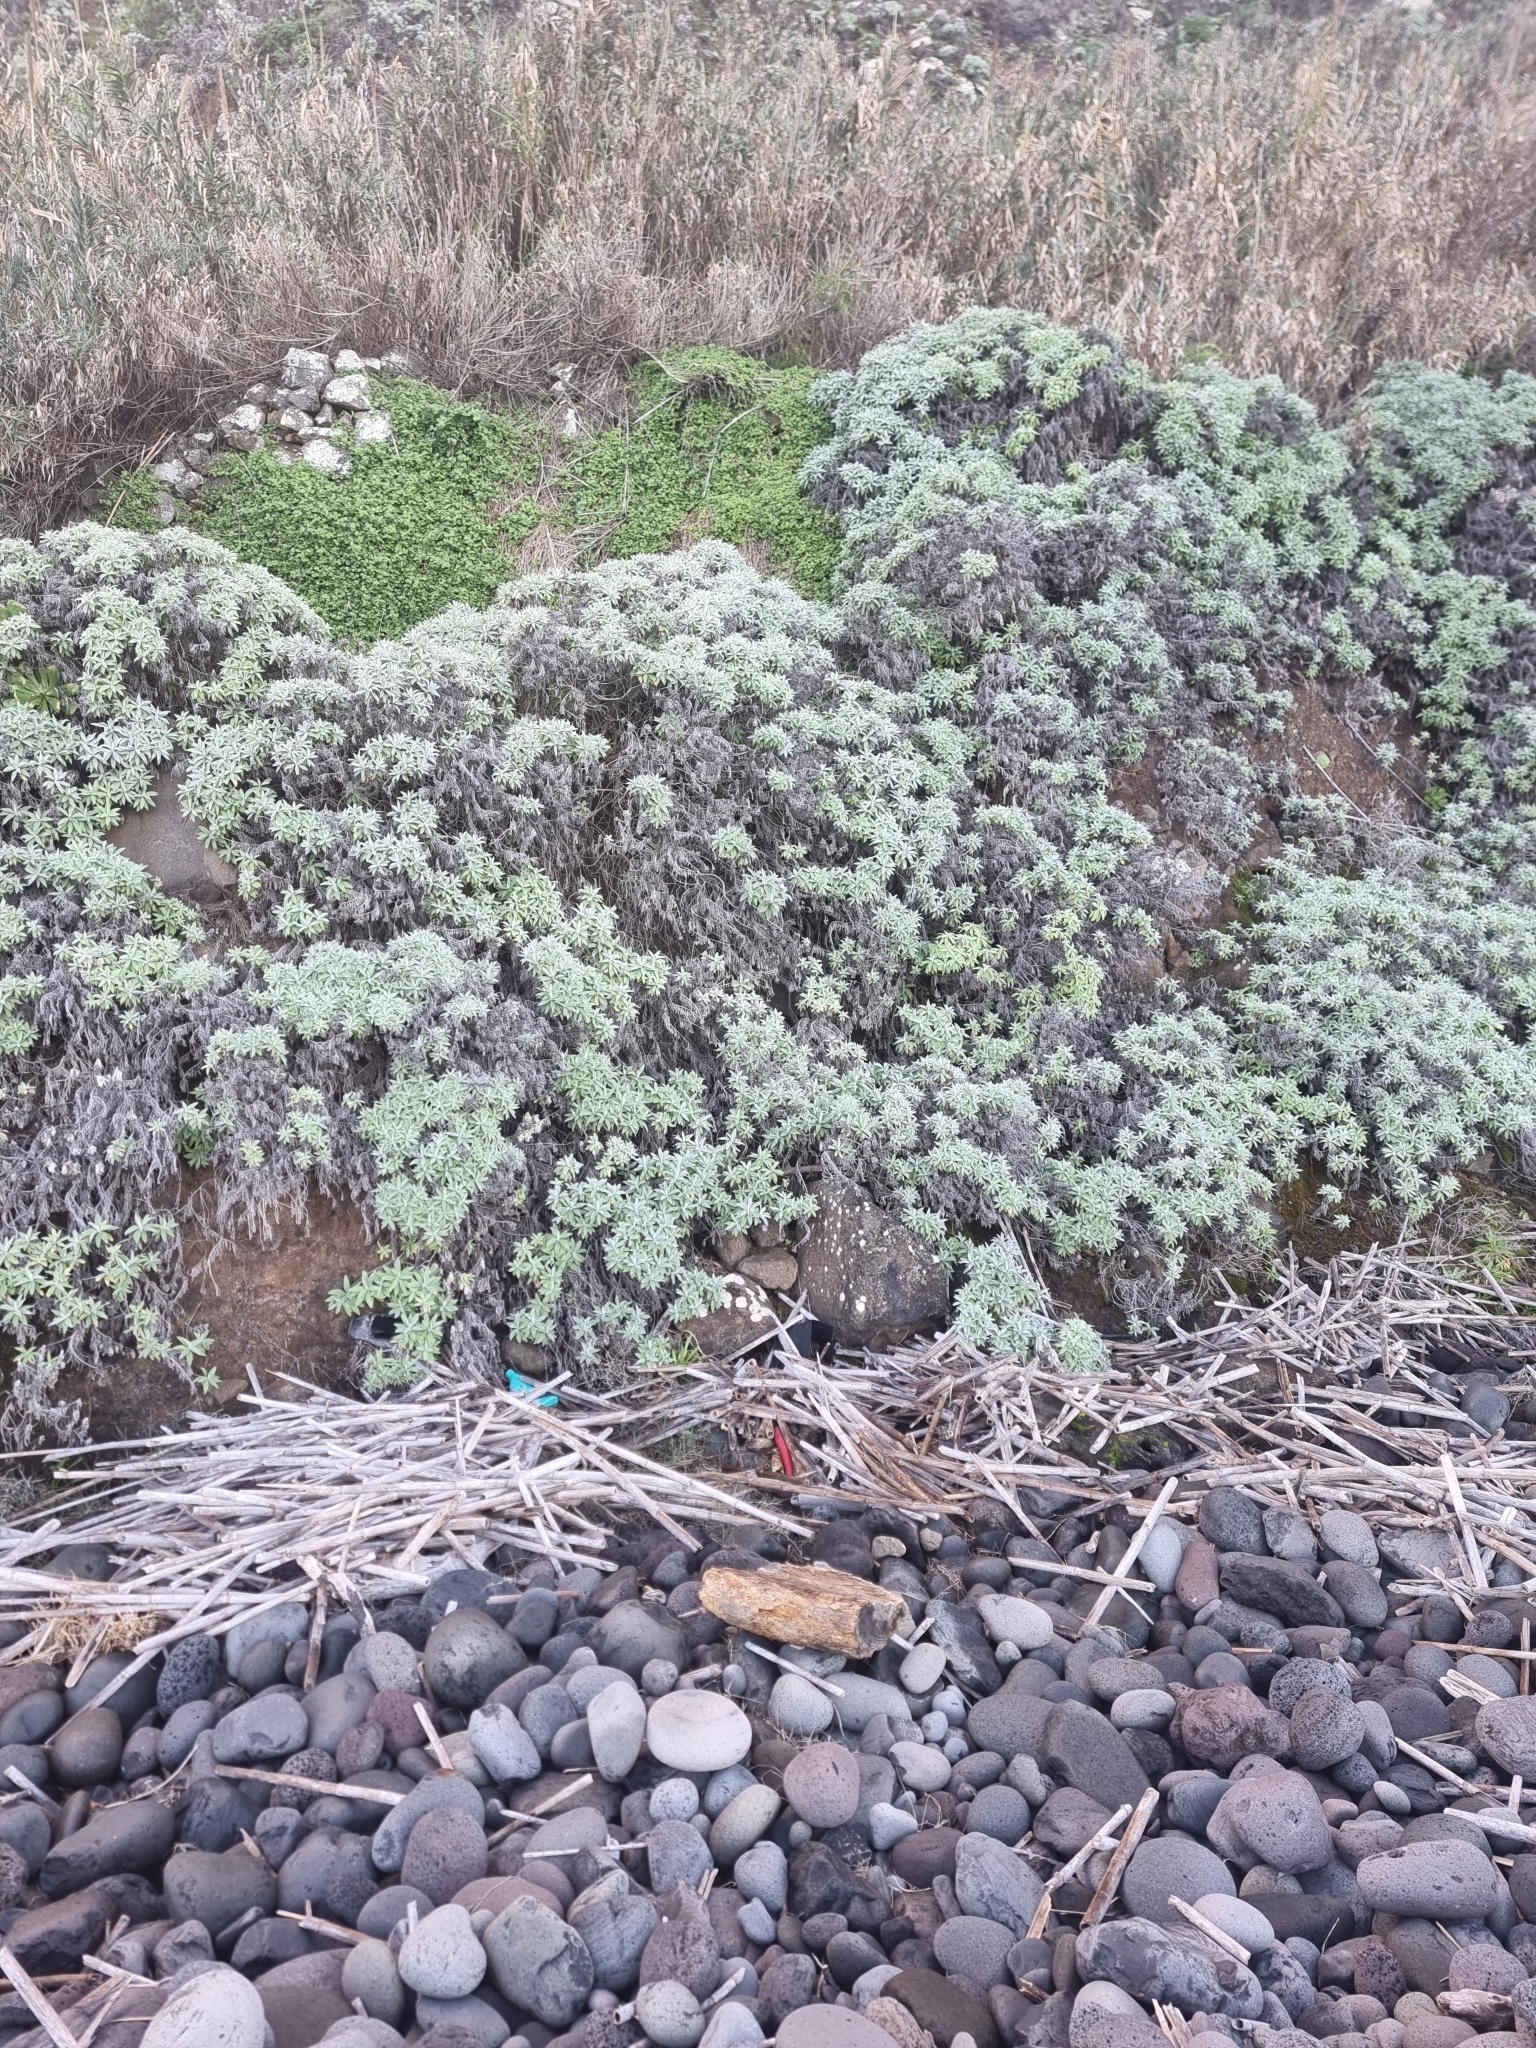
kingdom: Plantae
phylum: Tracheophyta
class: Magnoliopsida
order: Asterales
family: Asteraceae
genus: Helichrysum
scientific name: Helichrysum melaleucum
